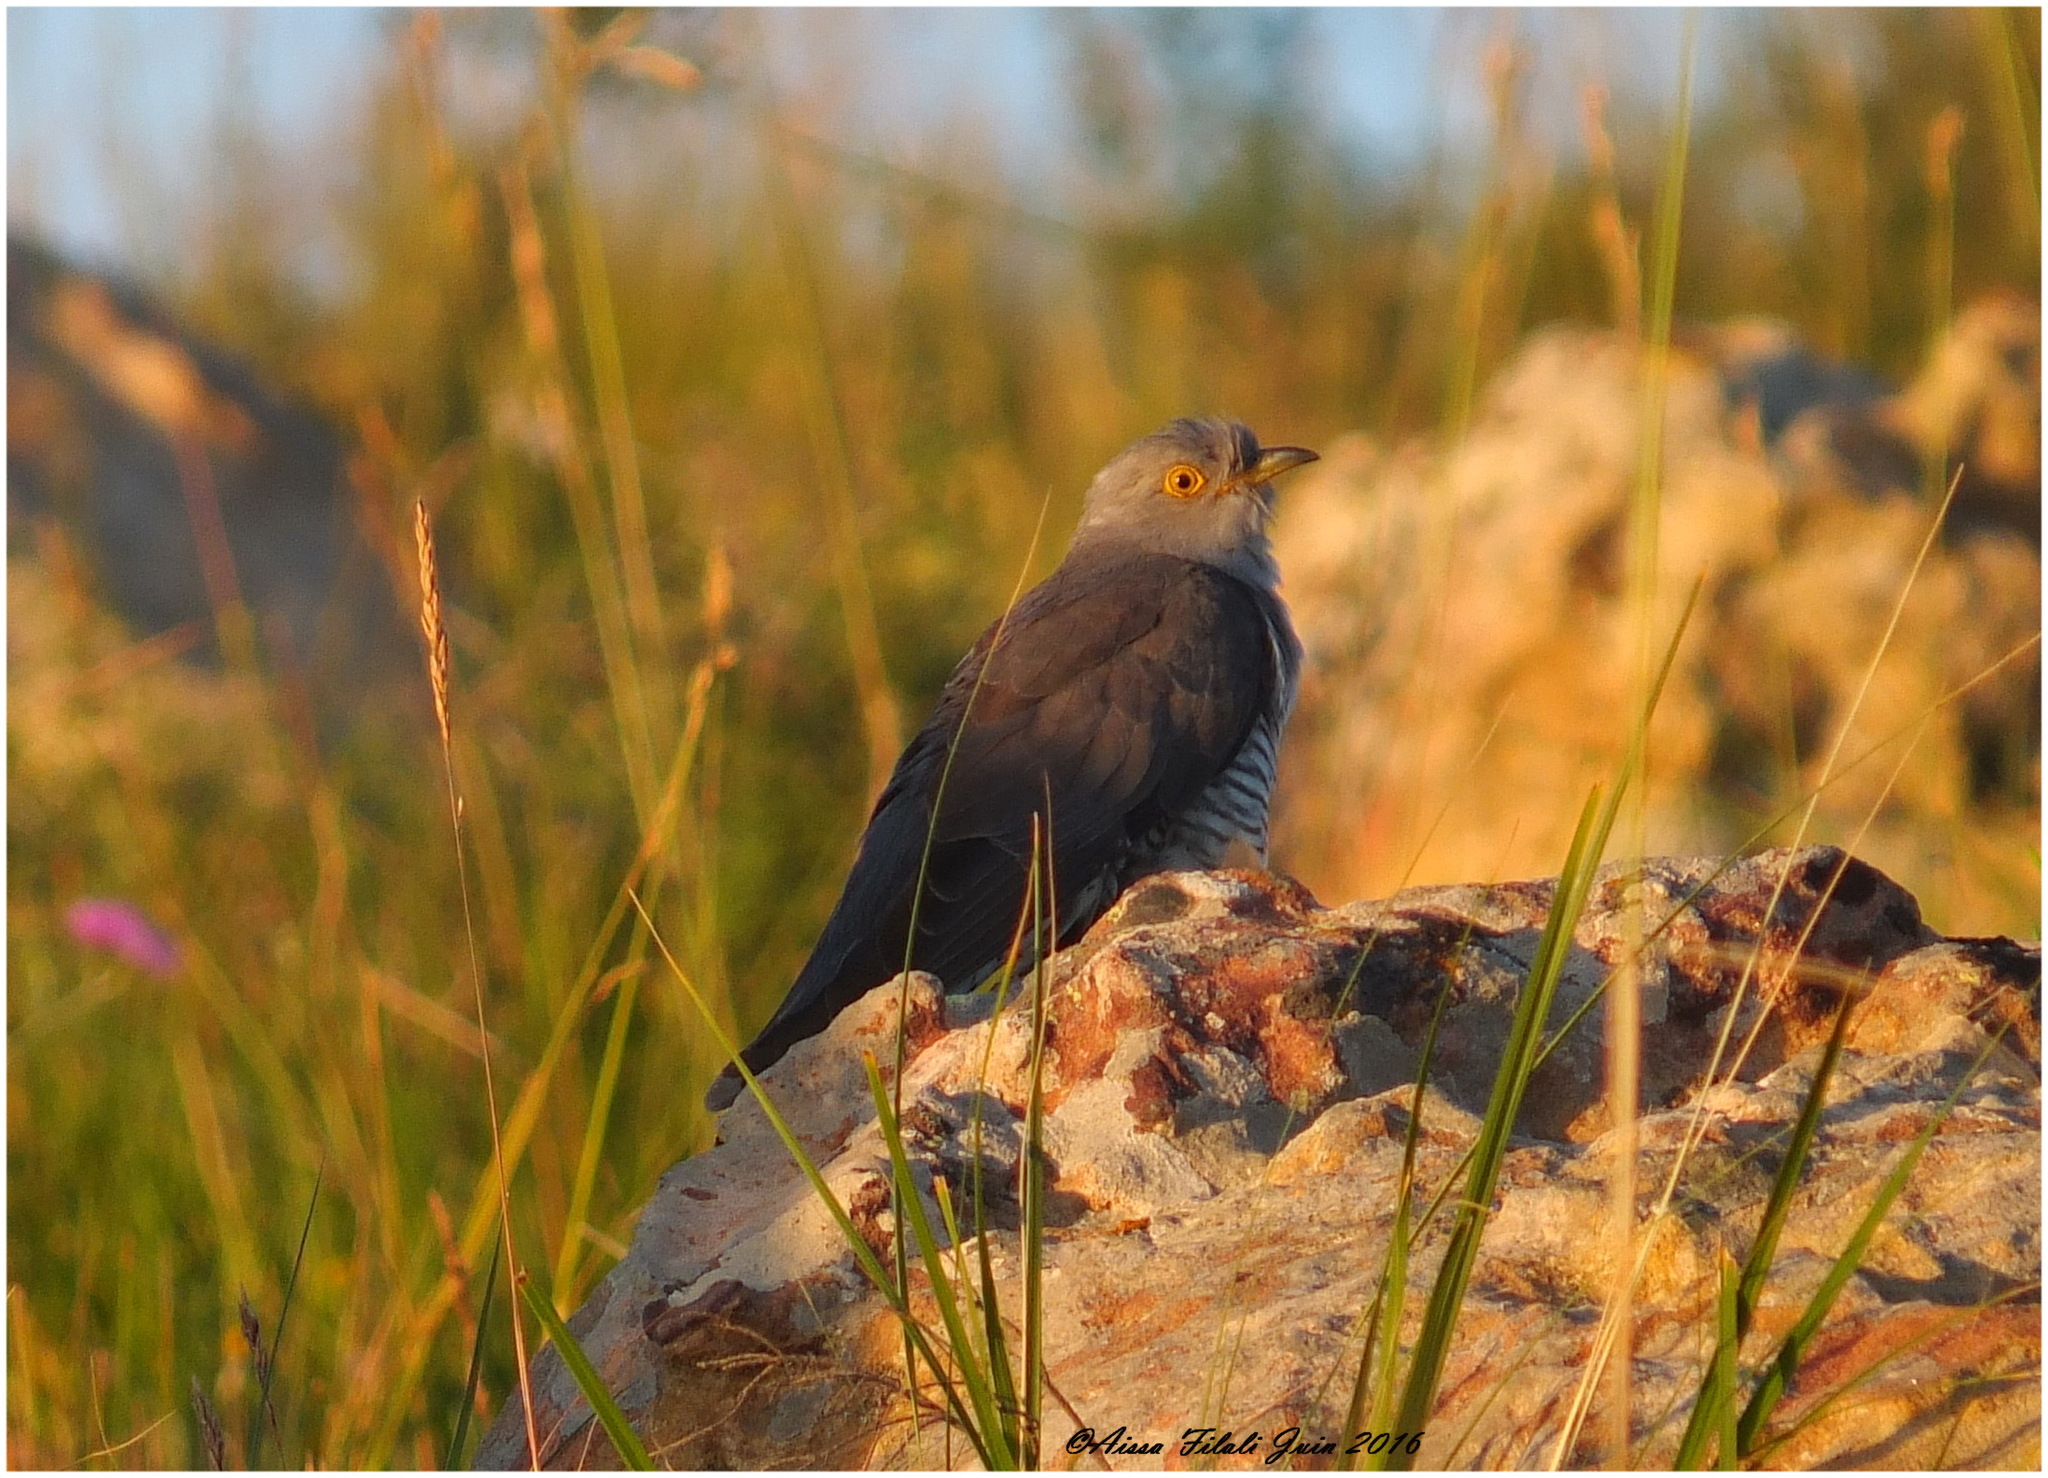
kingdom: Animalia
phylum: Chordata
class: Aves
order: Cuculiformes
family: Cuculidae
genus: Cuculus
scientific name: Cuculus canorus
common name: Common cuckoo
